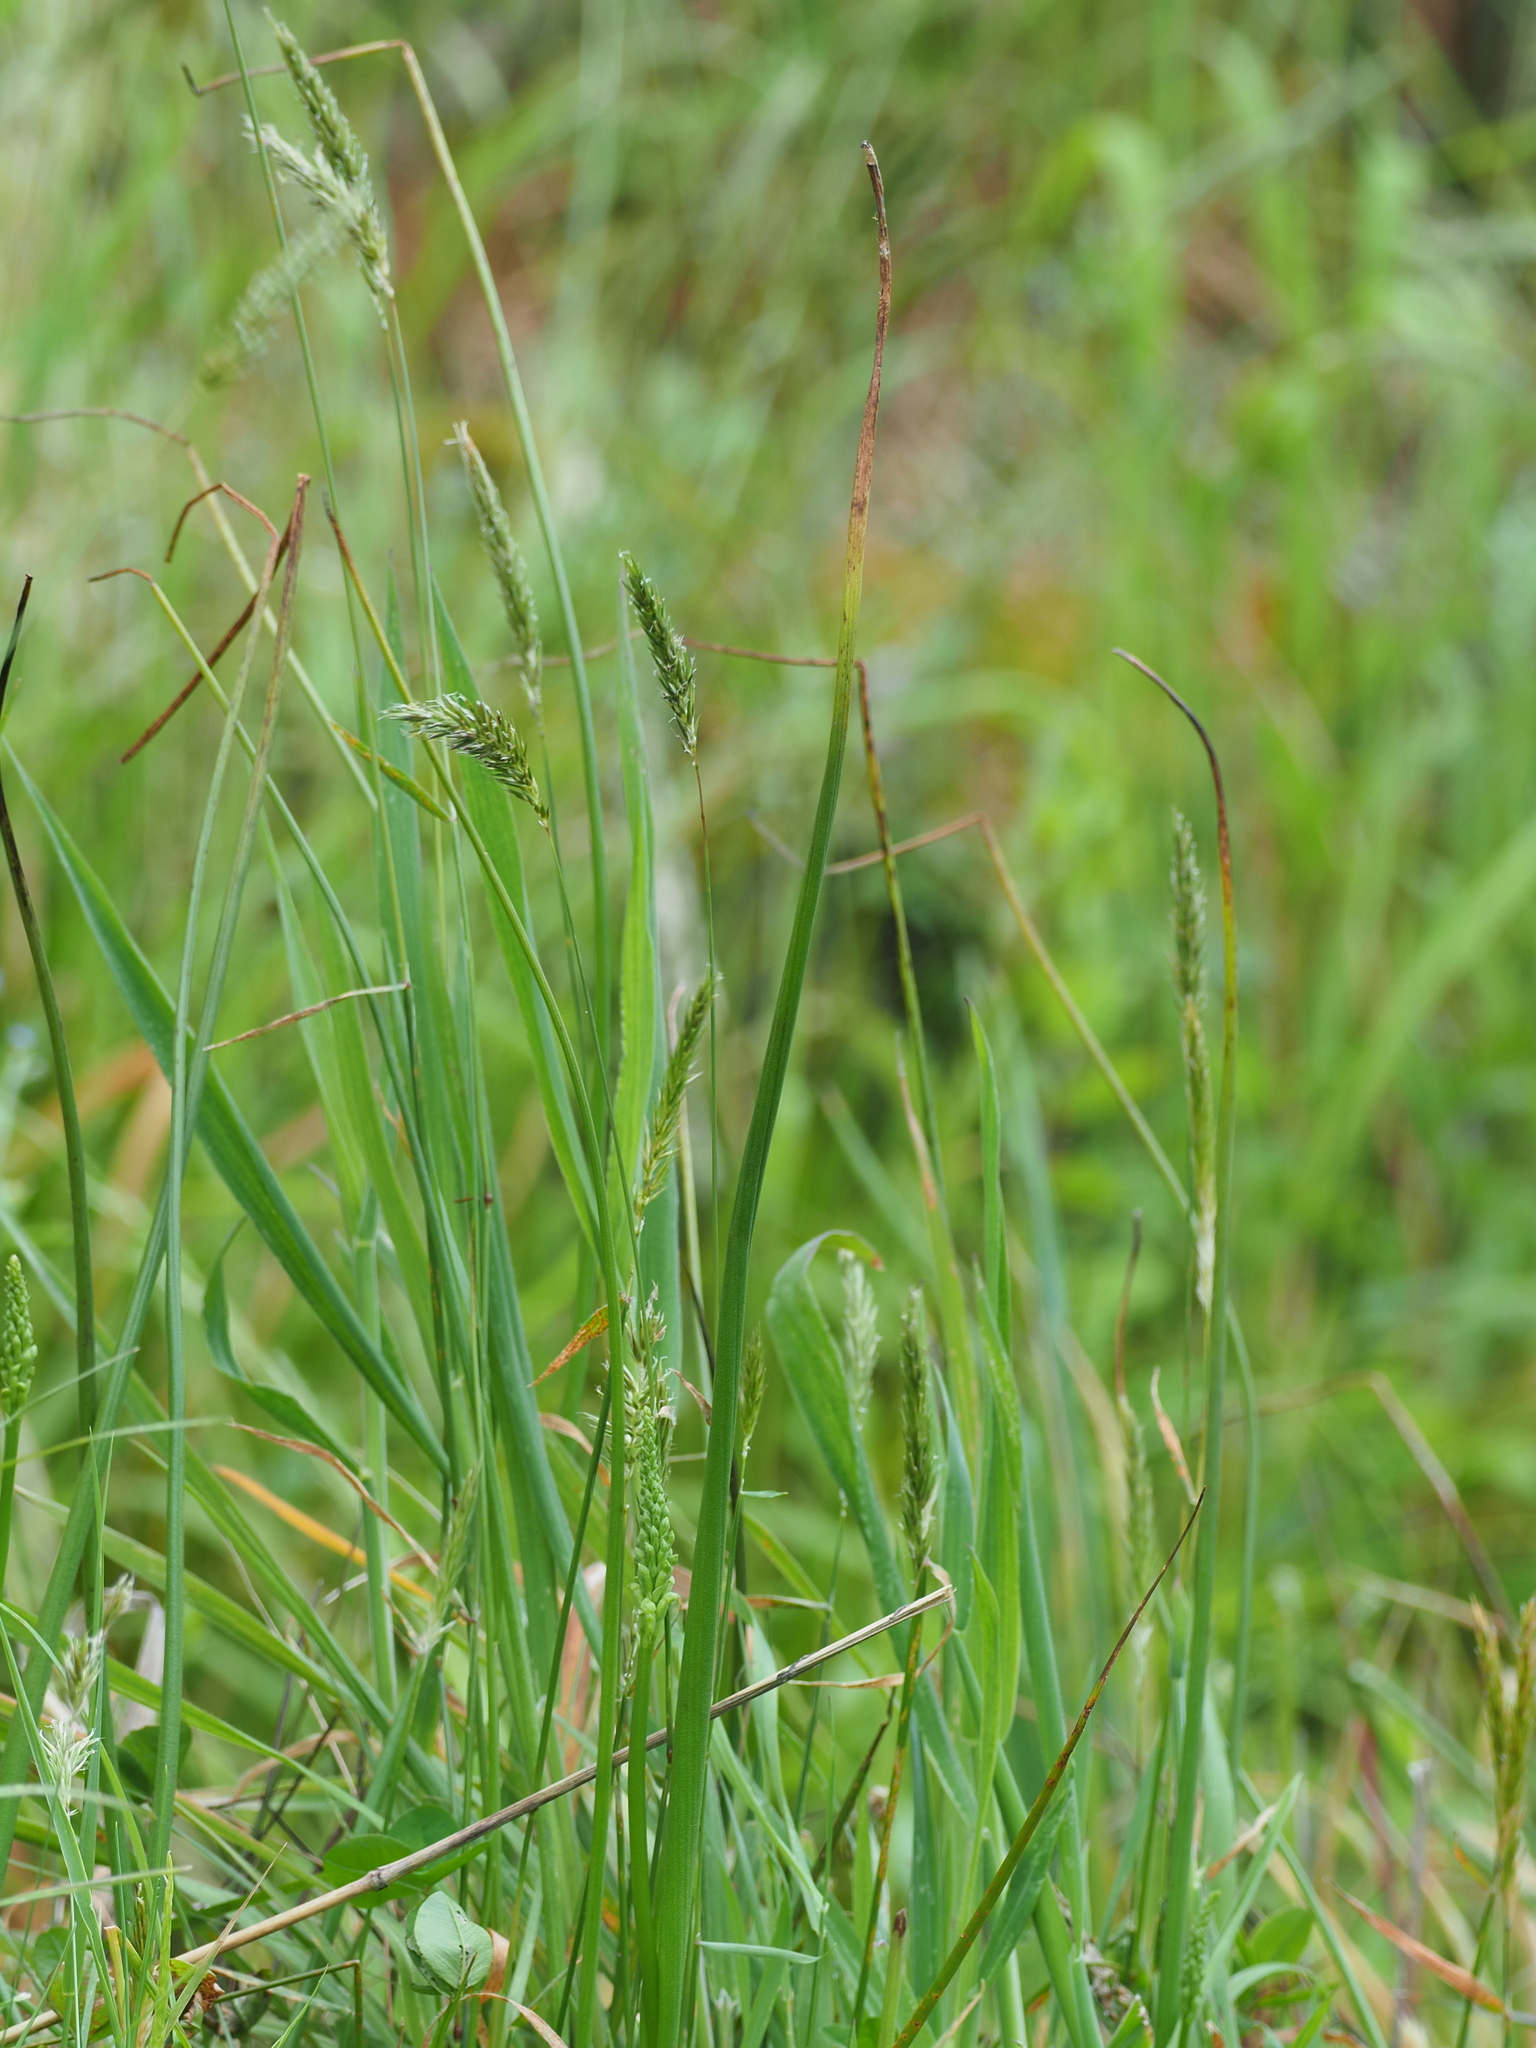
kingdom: Plantae
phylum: Tracheophyta
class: Liliopsida
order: Asparagales
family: Orchidaceae
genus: Microtis
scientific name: Microtis unifolia
